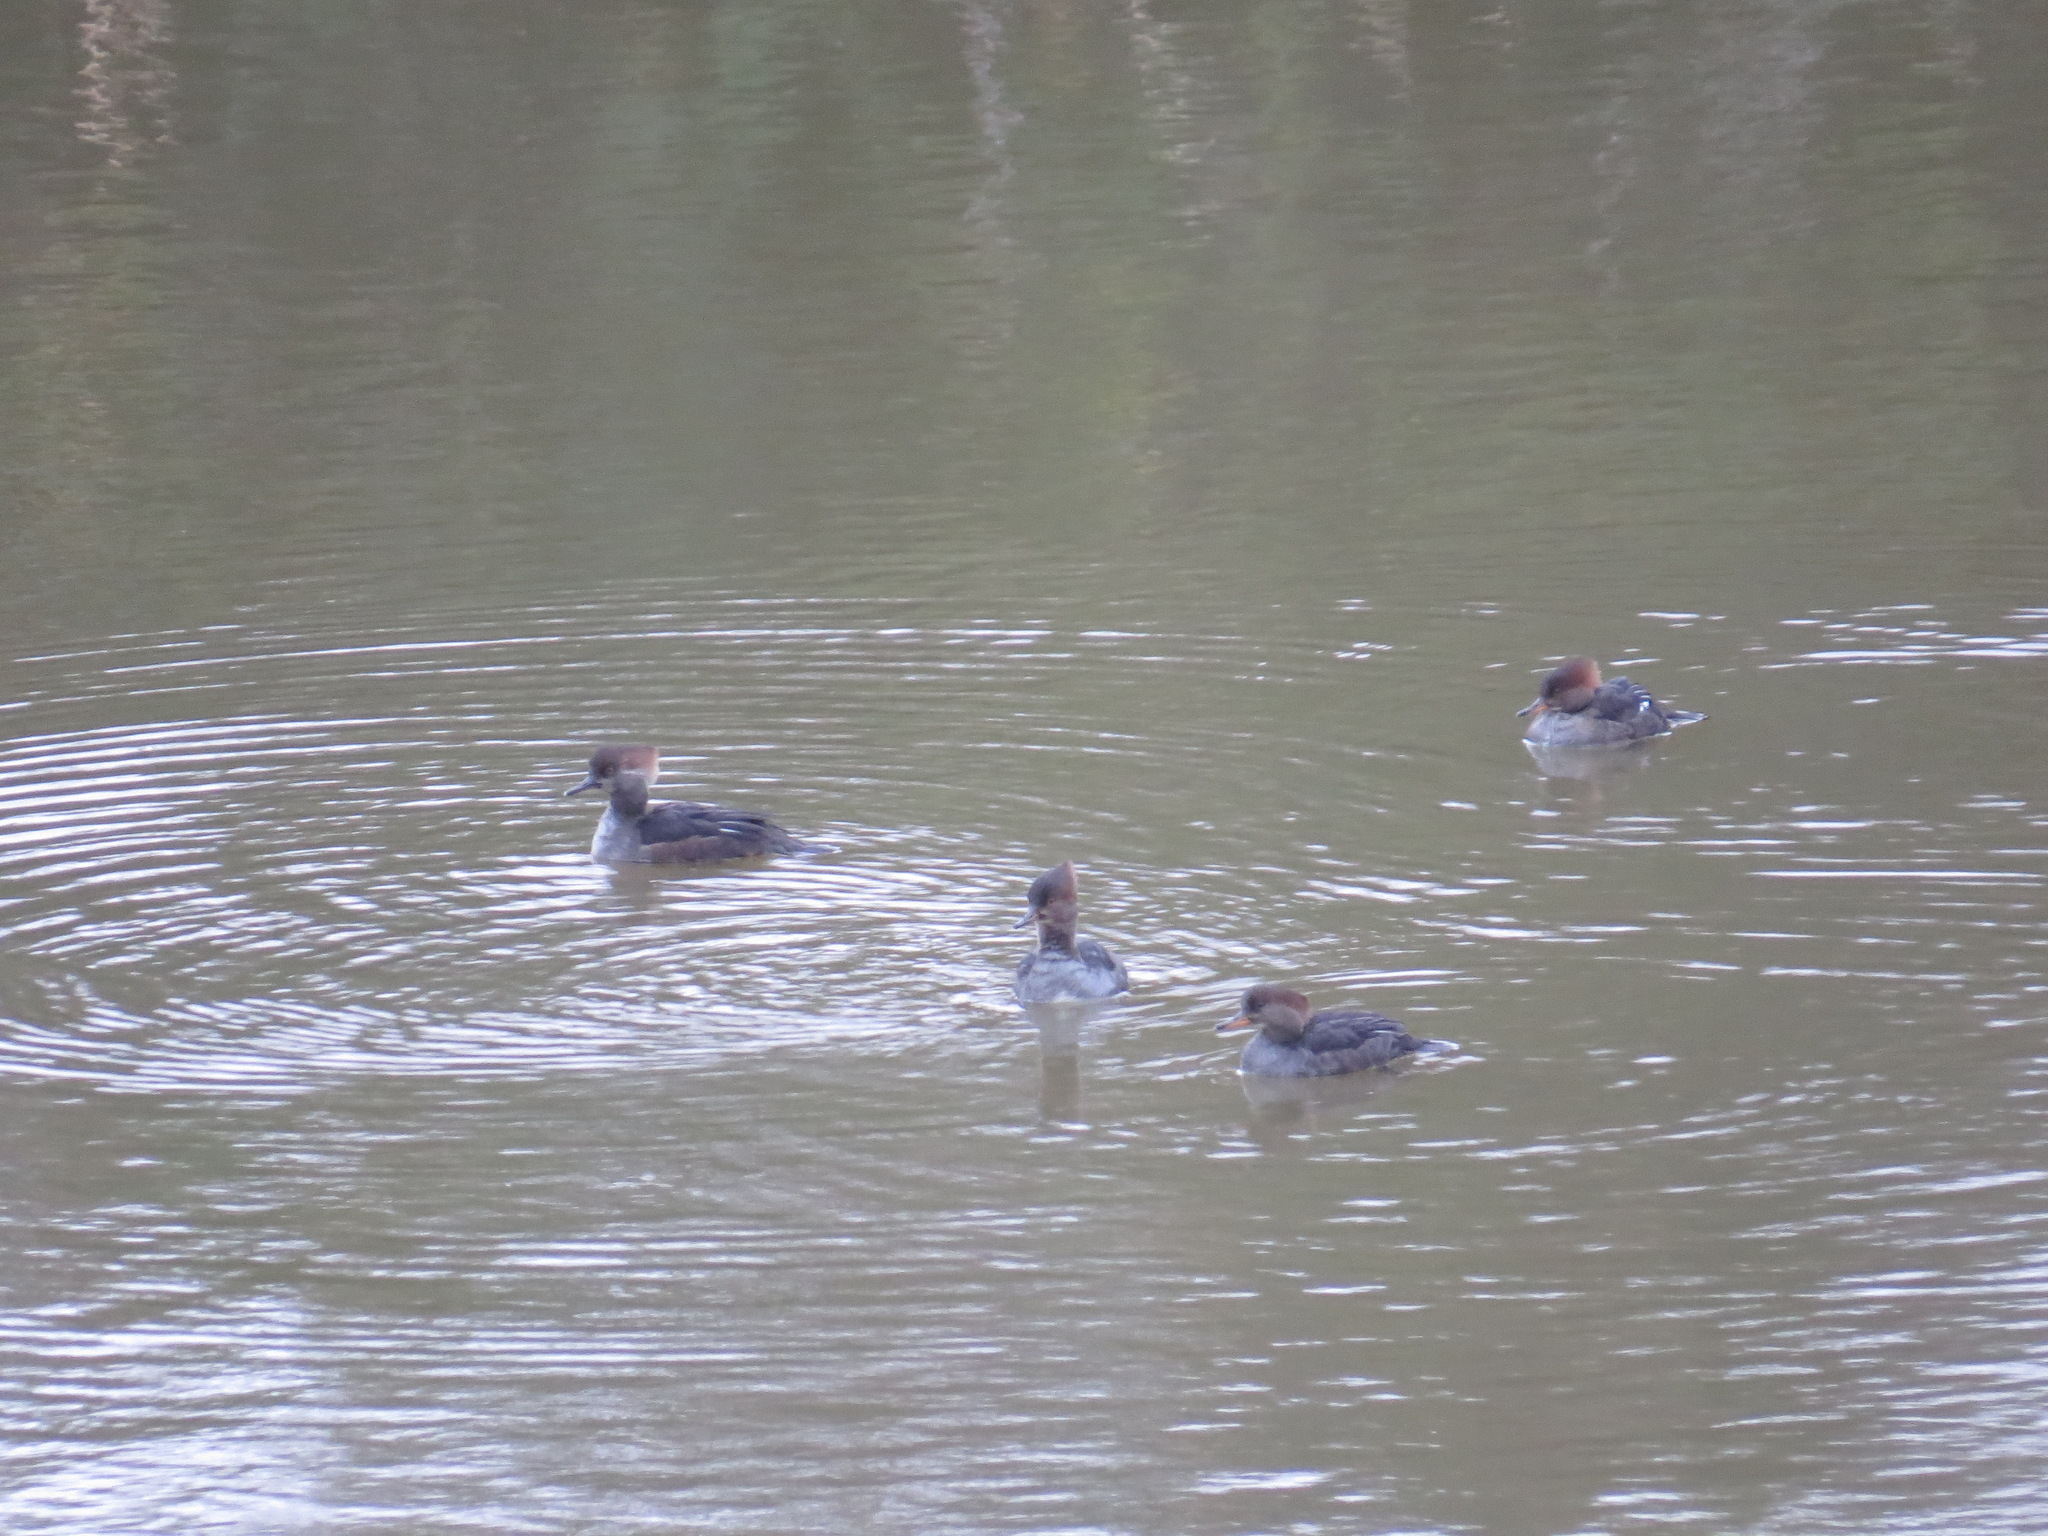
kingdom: Animalia
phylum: Chordata
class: Aves
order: Anseriformes
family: Anatidae
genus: Lophodytes
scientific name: Lophodytes cucullatus
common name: Hooded merganser
